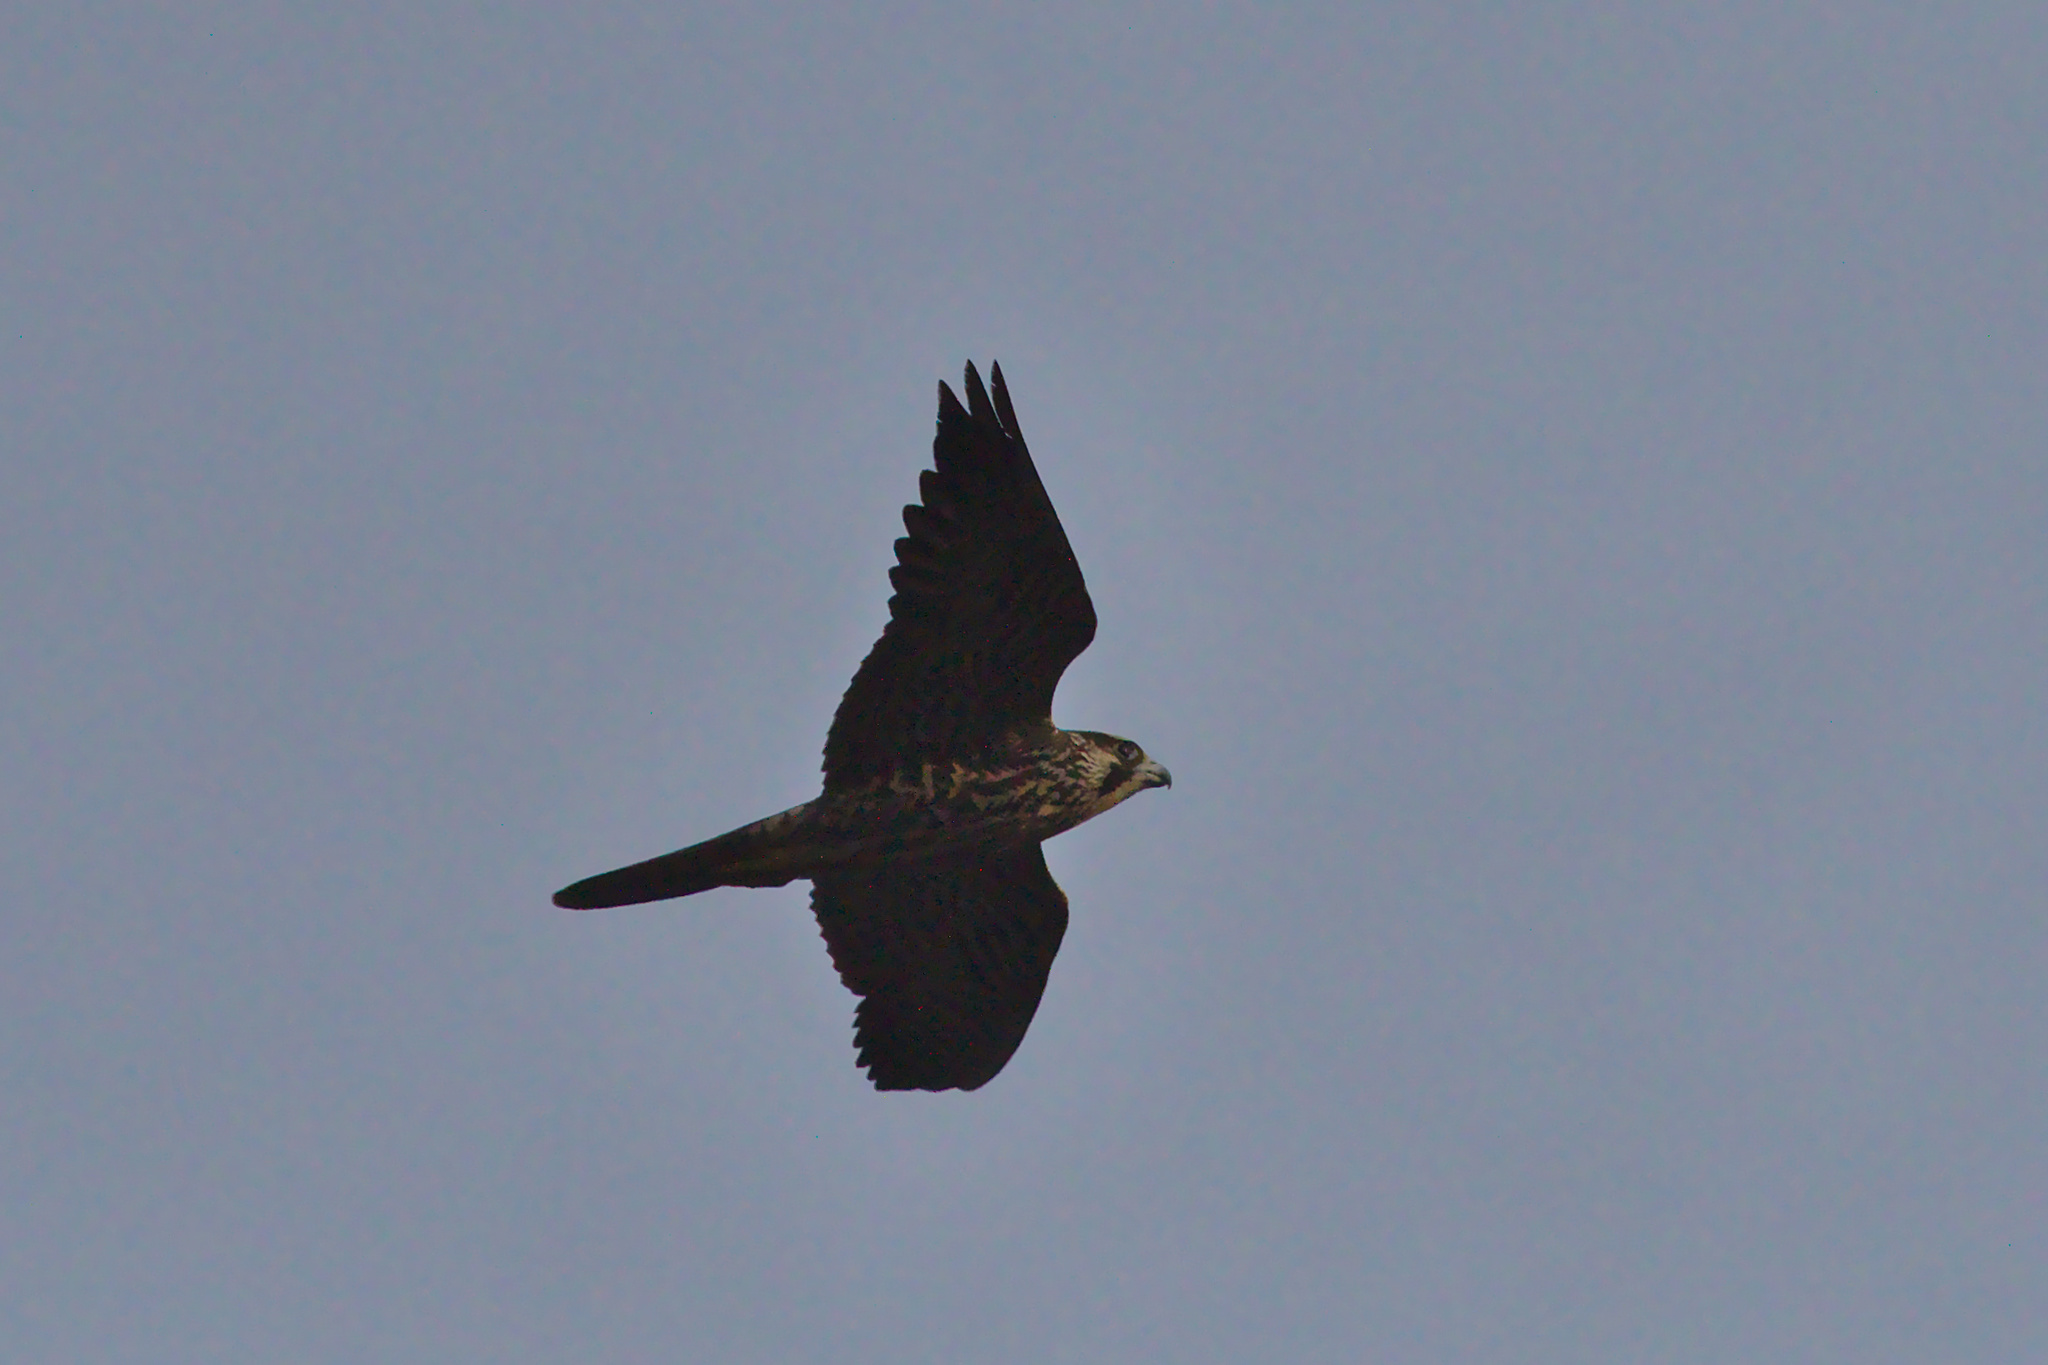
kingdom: Animalia
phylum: Chordata
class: Aves
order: Falconiformes
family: Falconidae
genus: Falco
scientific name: Falco peregrinus
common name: Peregrine falcon
